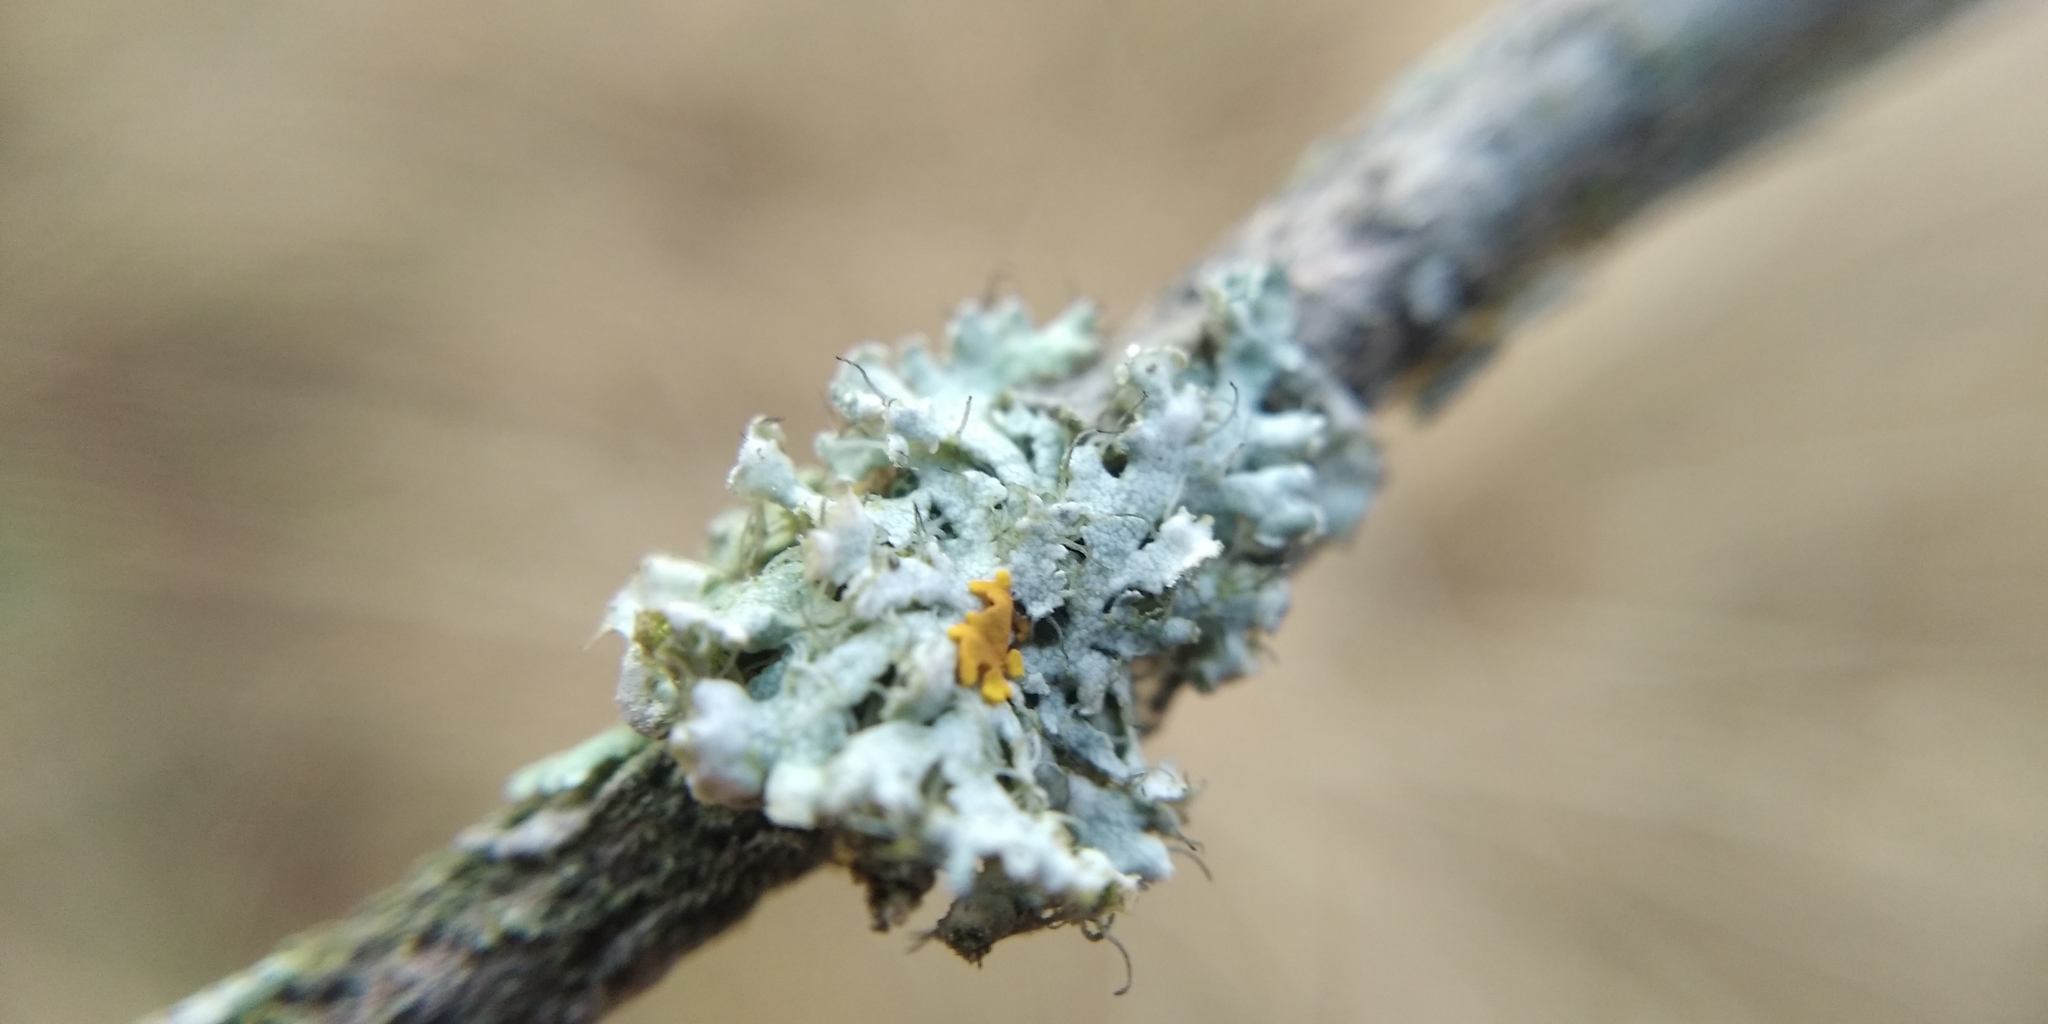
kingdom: Fungi
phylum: Ascomycota
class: Lecanoromycetes
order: Lecanorales
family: Parmeliaceae
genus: Evernia
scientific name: Evernia prunastri
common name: Oak moss
